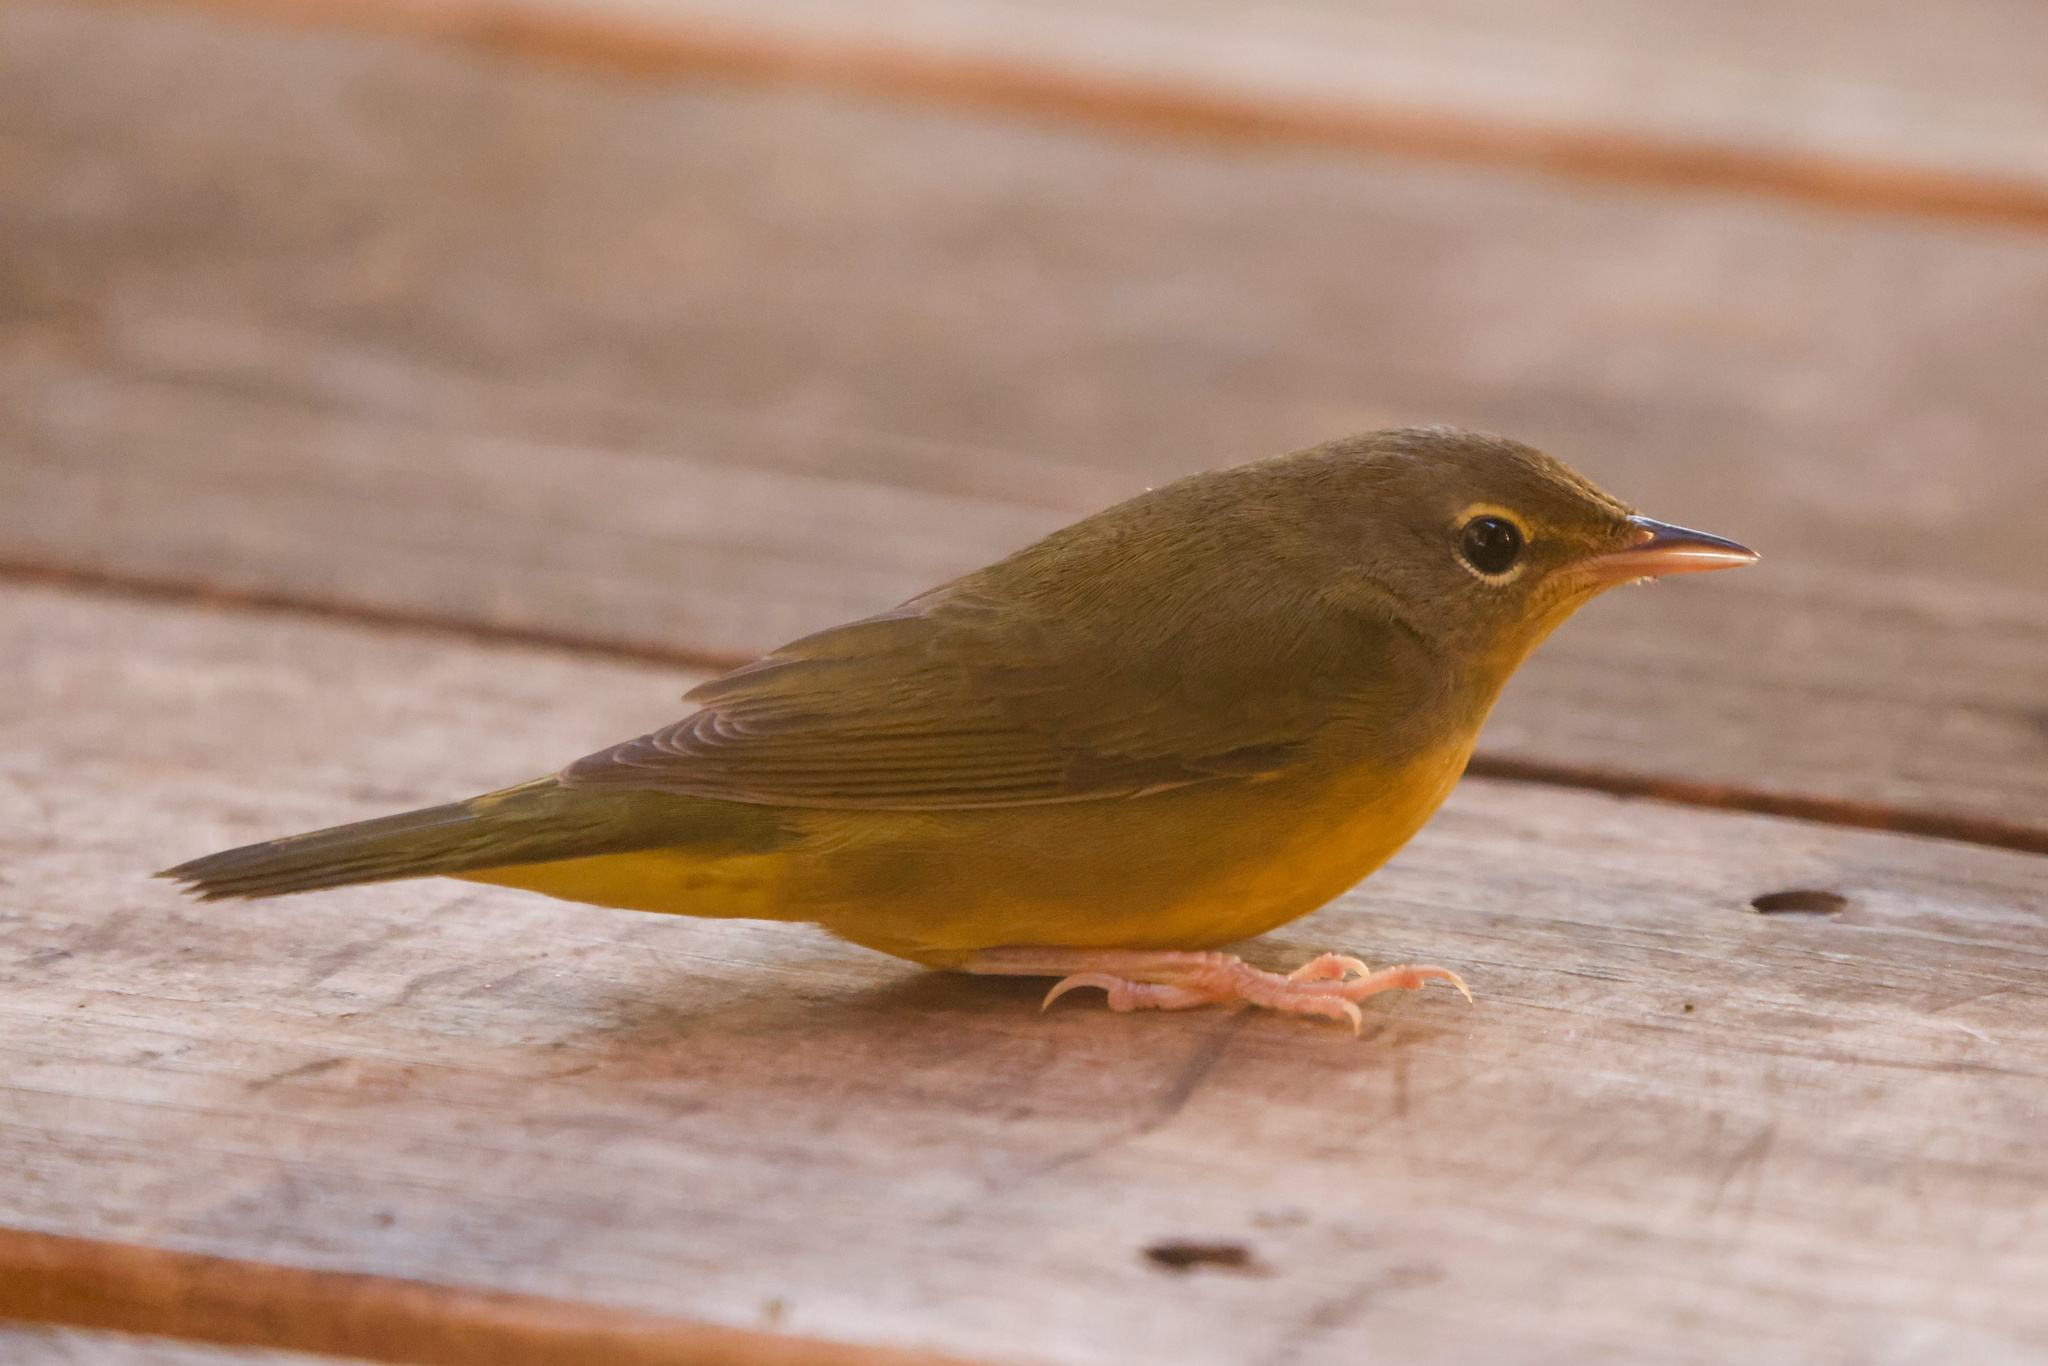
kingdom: Animalia
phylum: Chordata
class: Aves
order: Passeriformes
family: Parulidae
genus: Geothlypis
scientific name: Geothlypis philadelphia
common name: Mourning warbler
